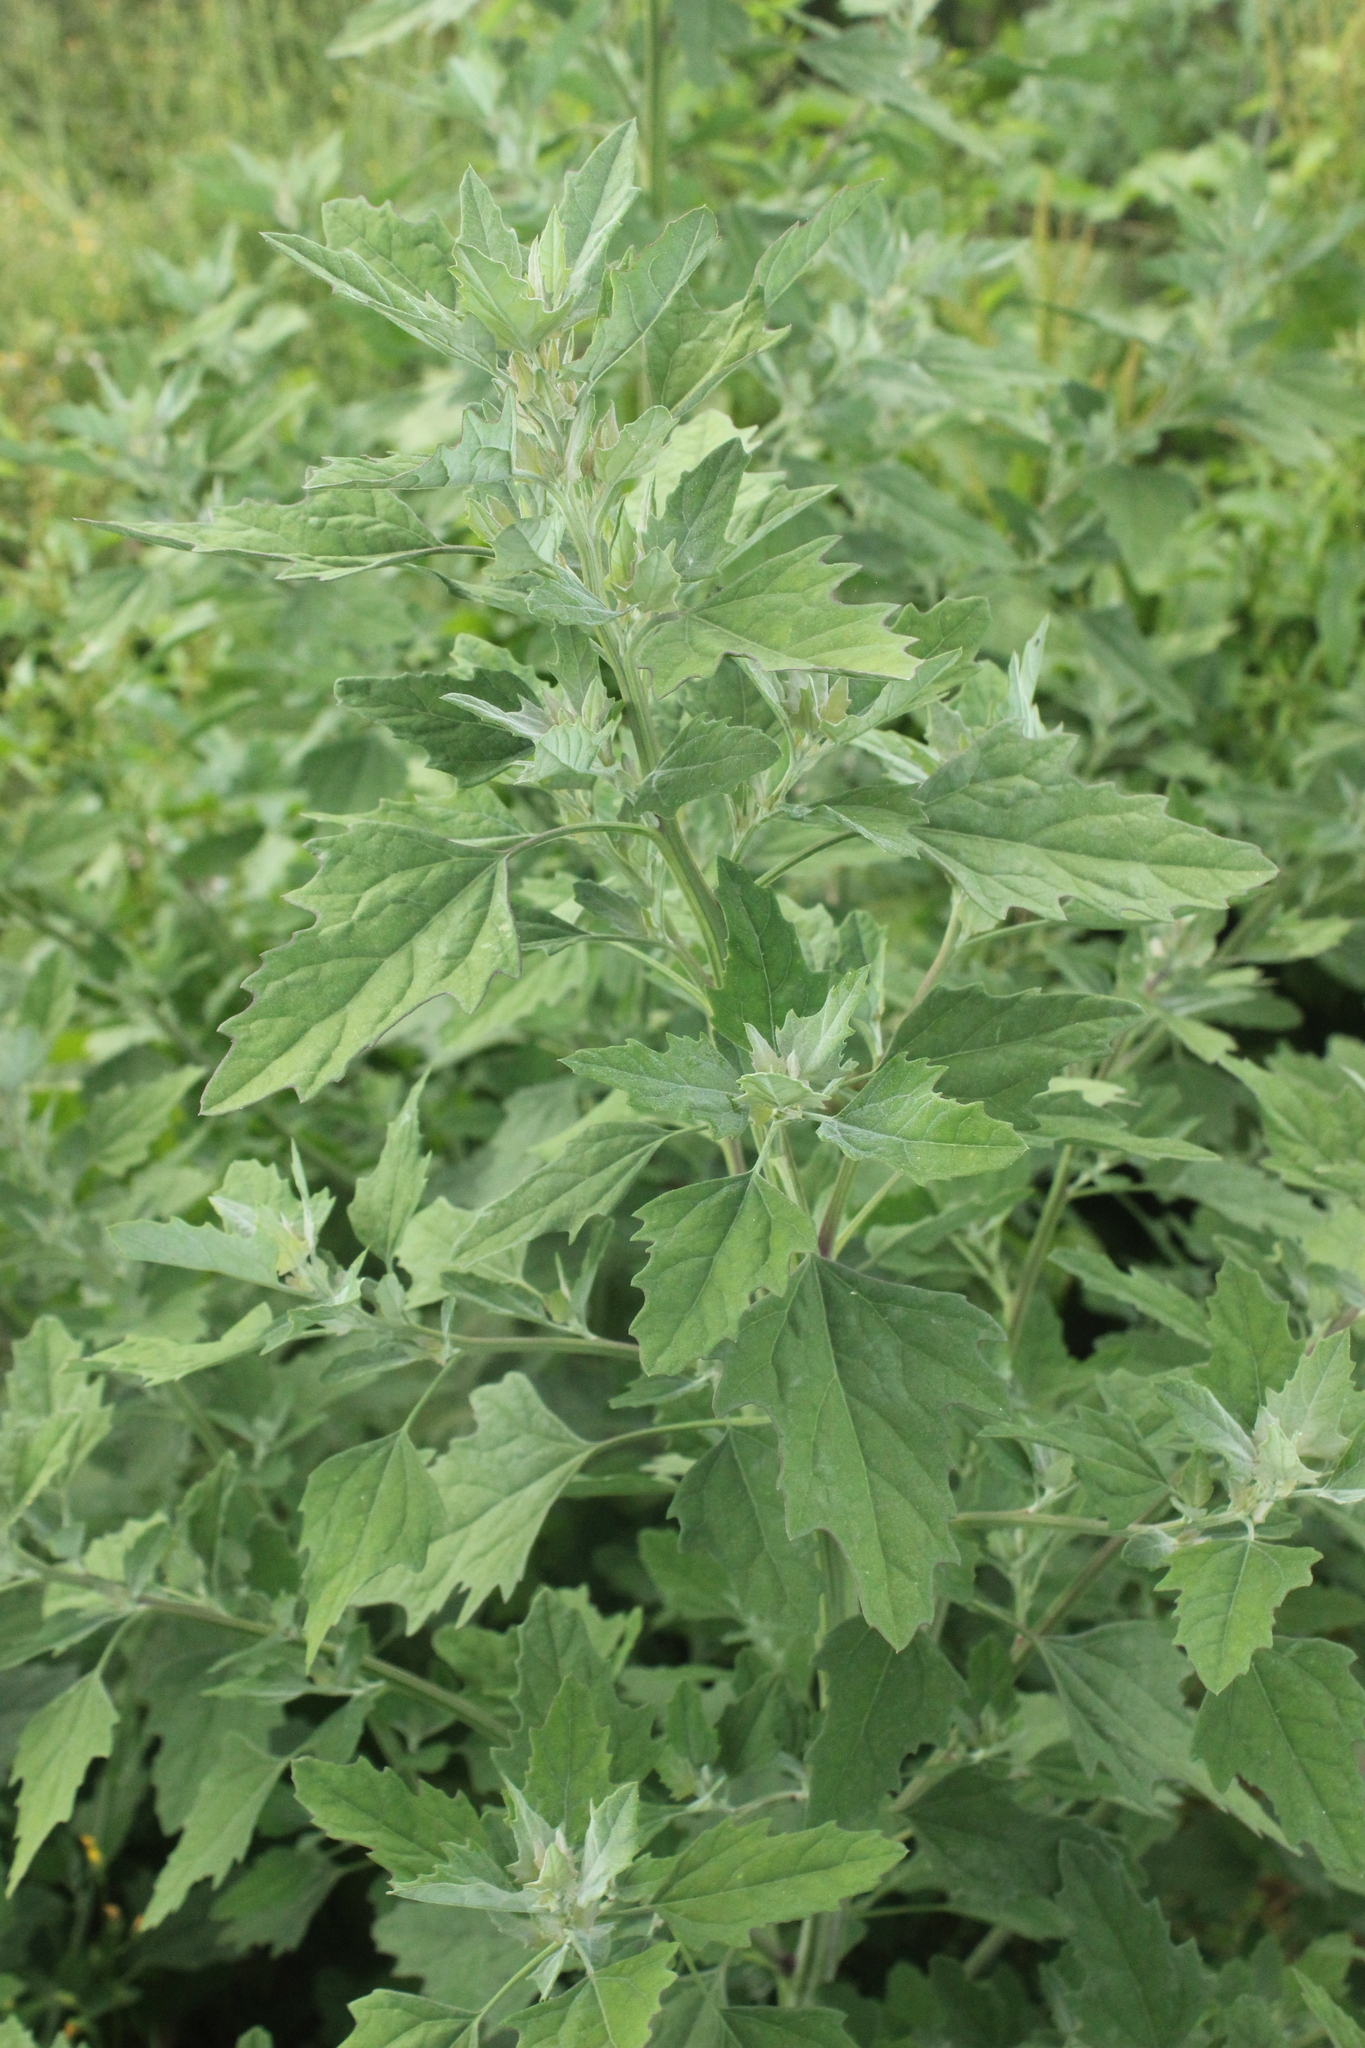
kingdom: Plantae
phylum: Tracheophyta
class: Magnoliopsida
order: Caryophyllales
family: Amaranthaceae
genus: Chenopodium
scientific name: Chenopodium album
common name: Fat-hen
